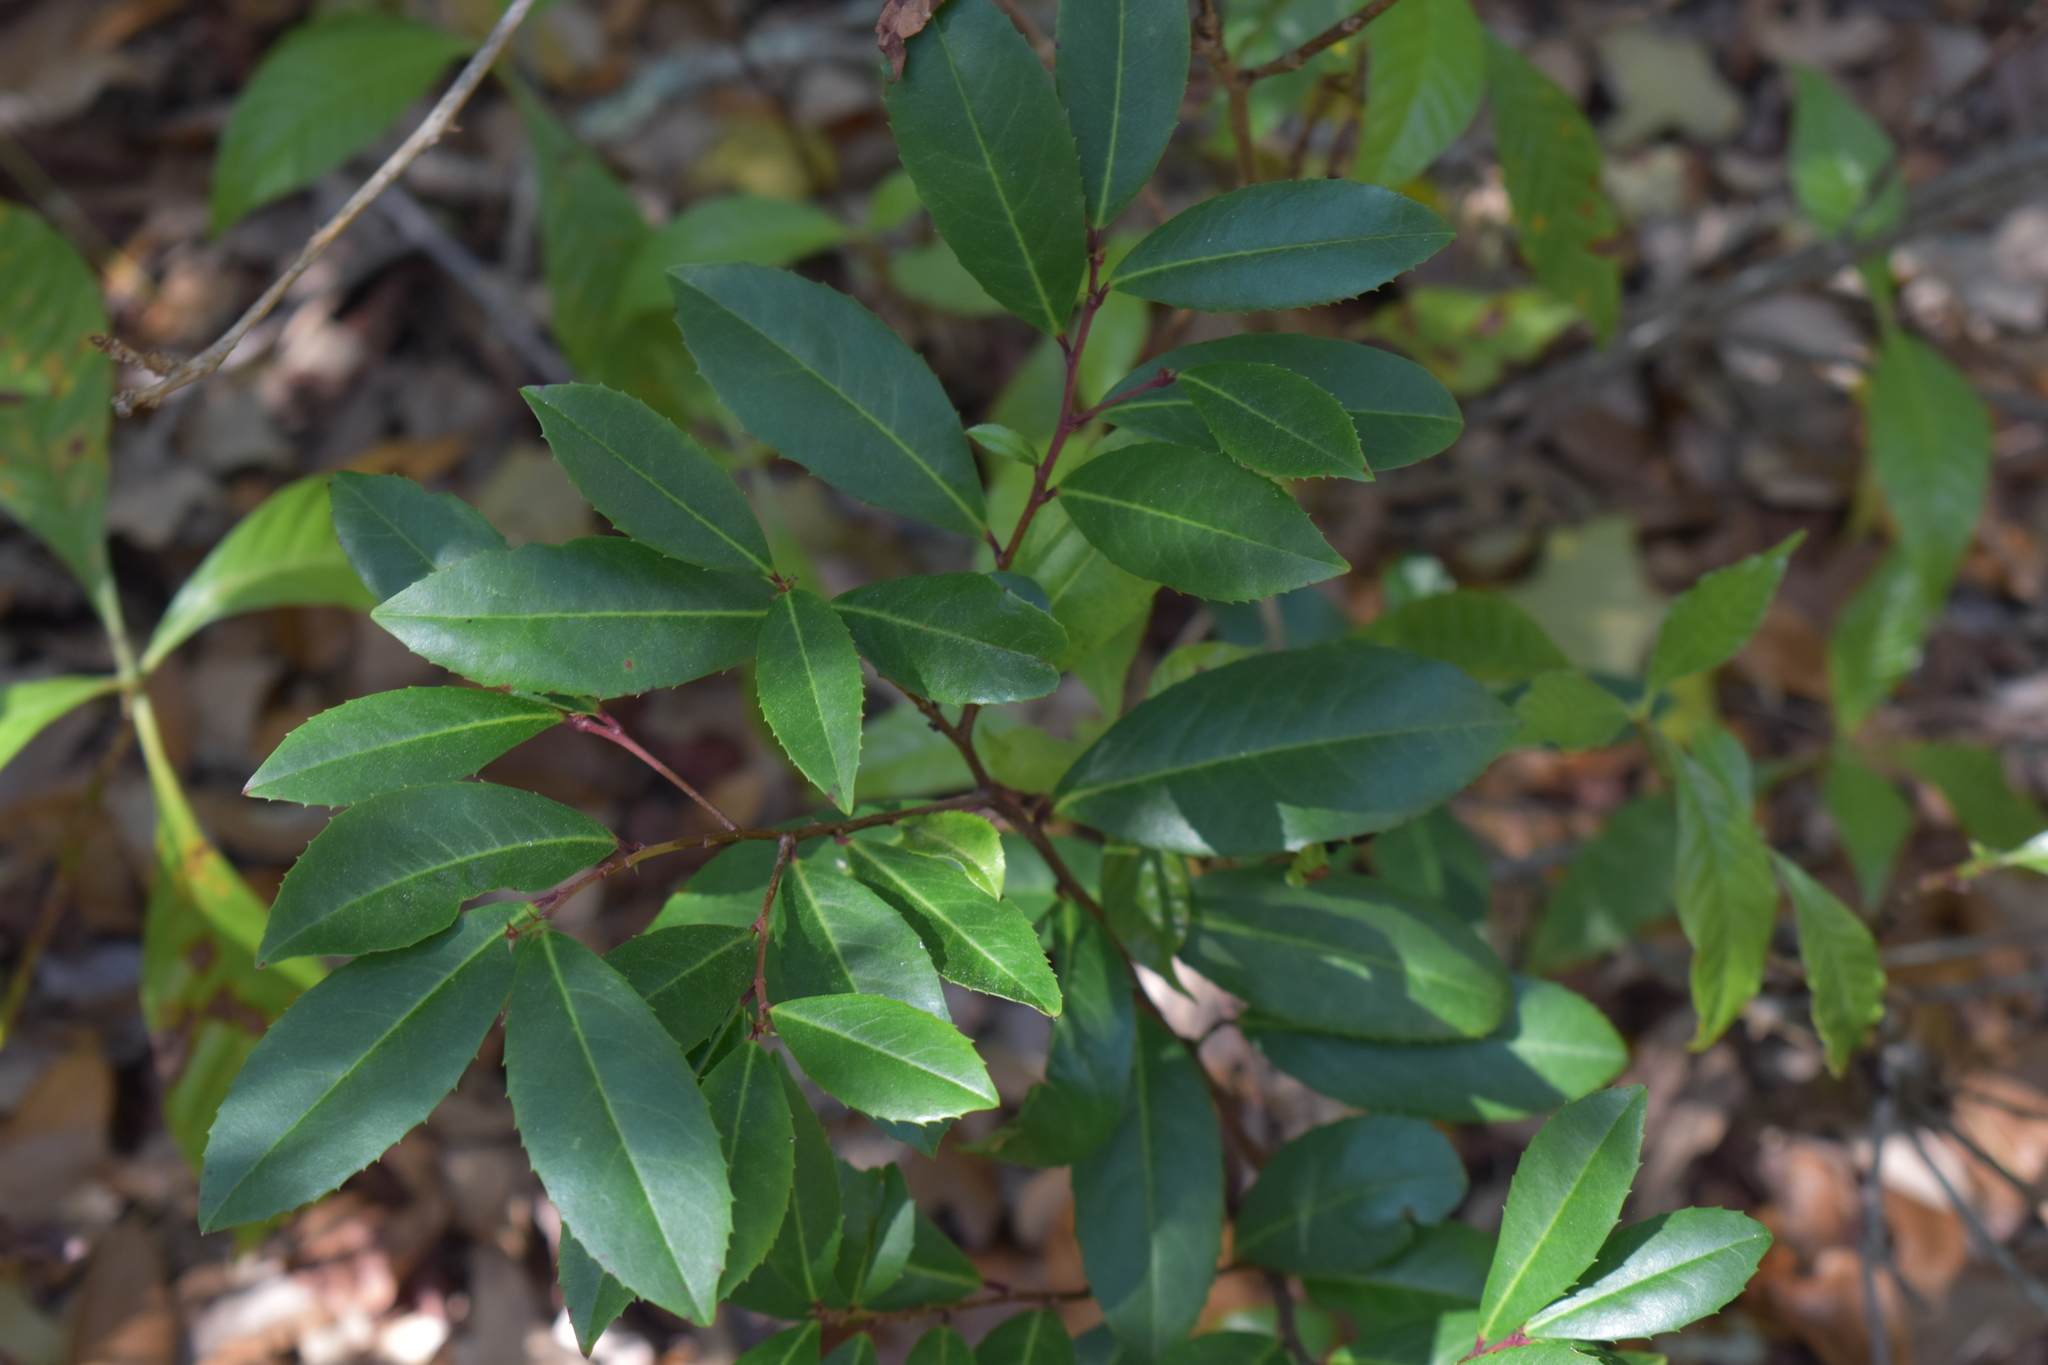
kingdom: Plantae
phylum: Tracheophyta
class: Magnoliopsida
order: Rosales
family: Rosaceae
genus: Prunus
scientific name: Prunus caroliniana
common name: Carolina laurel cherry
